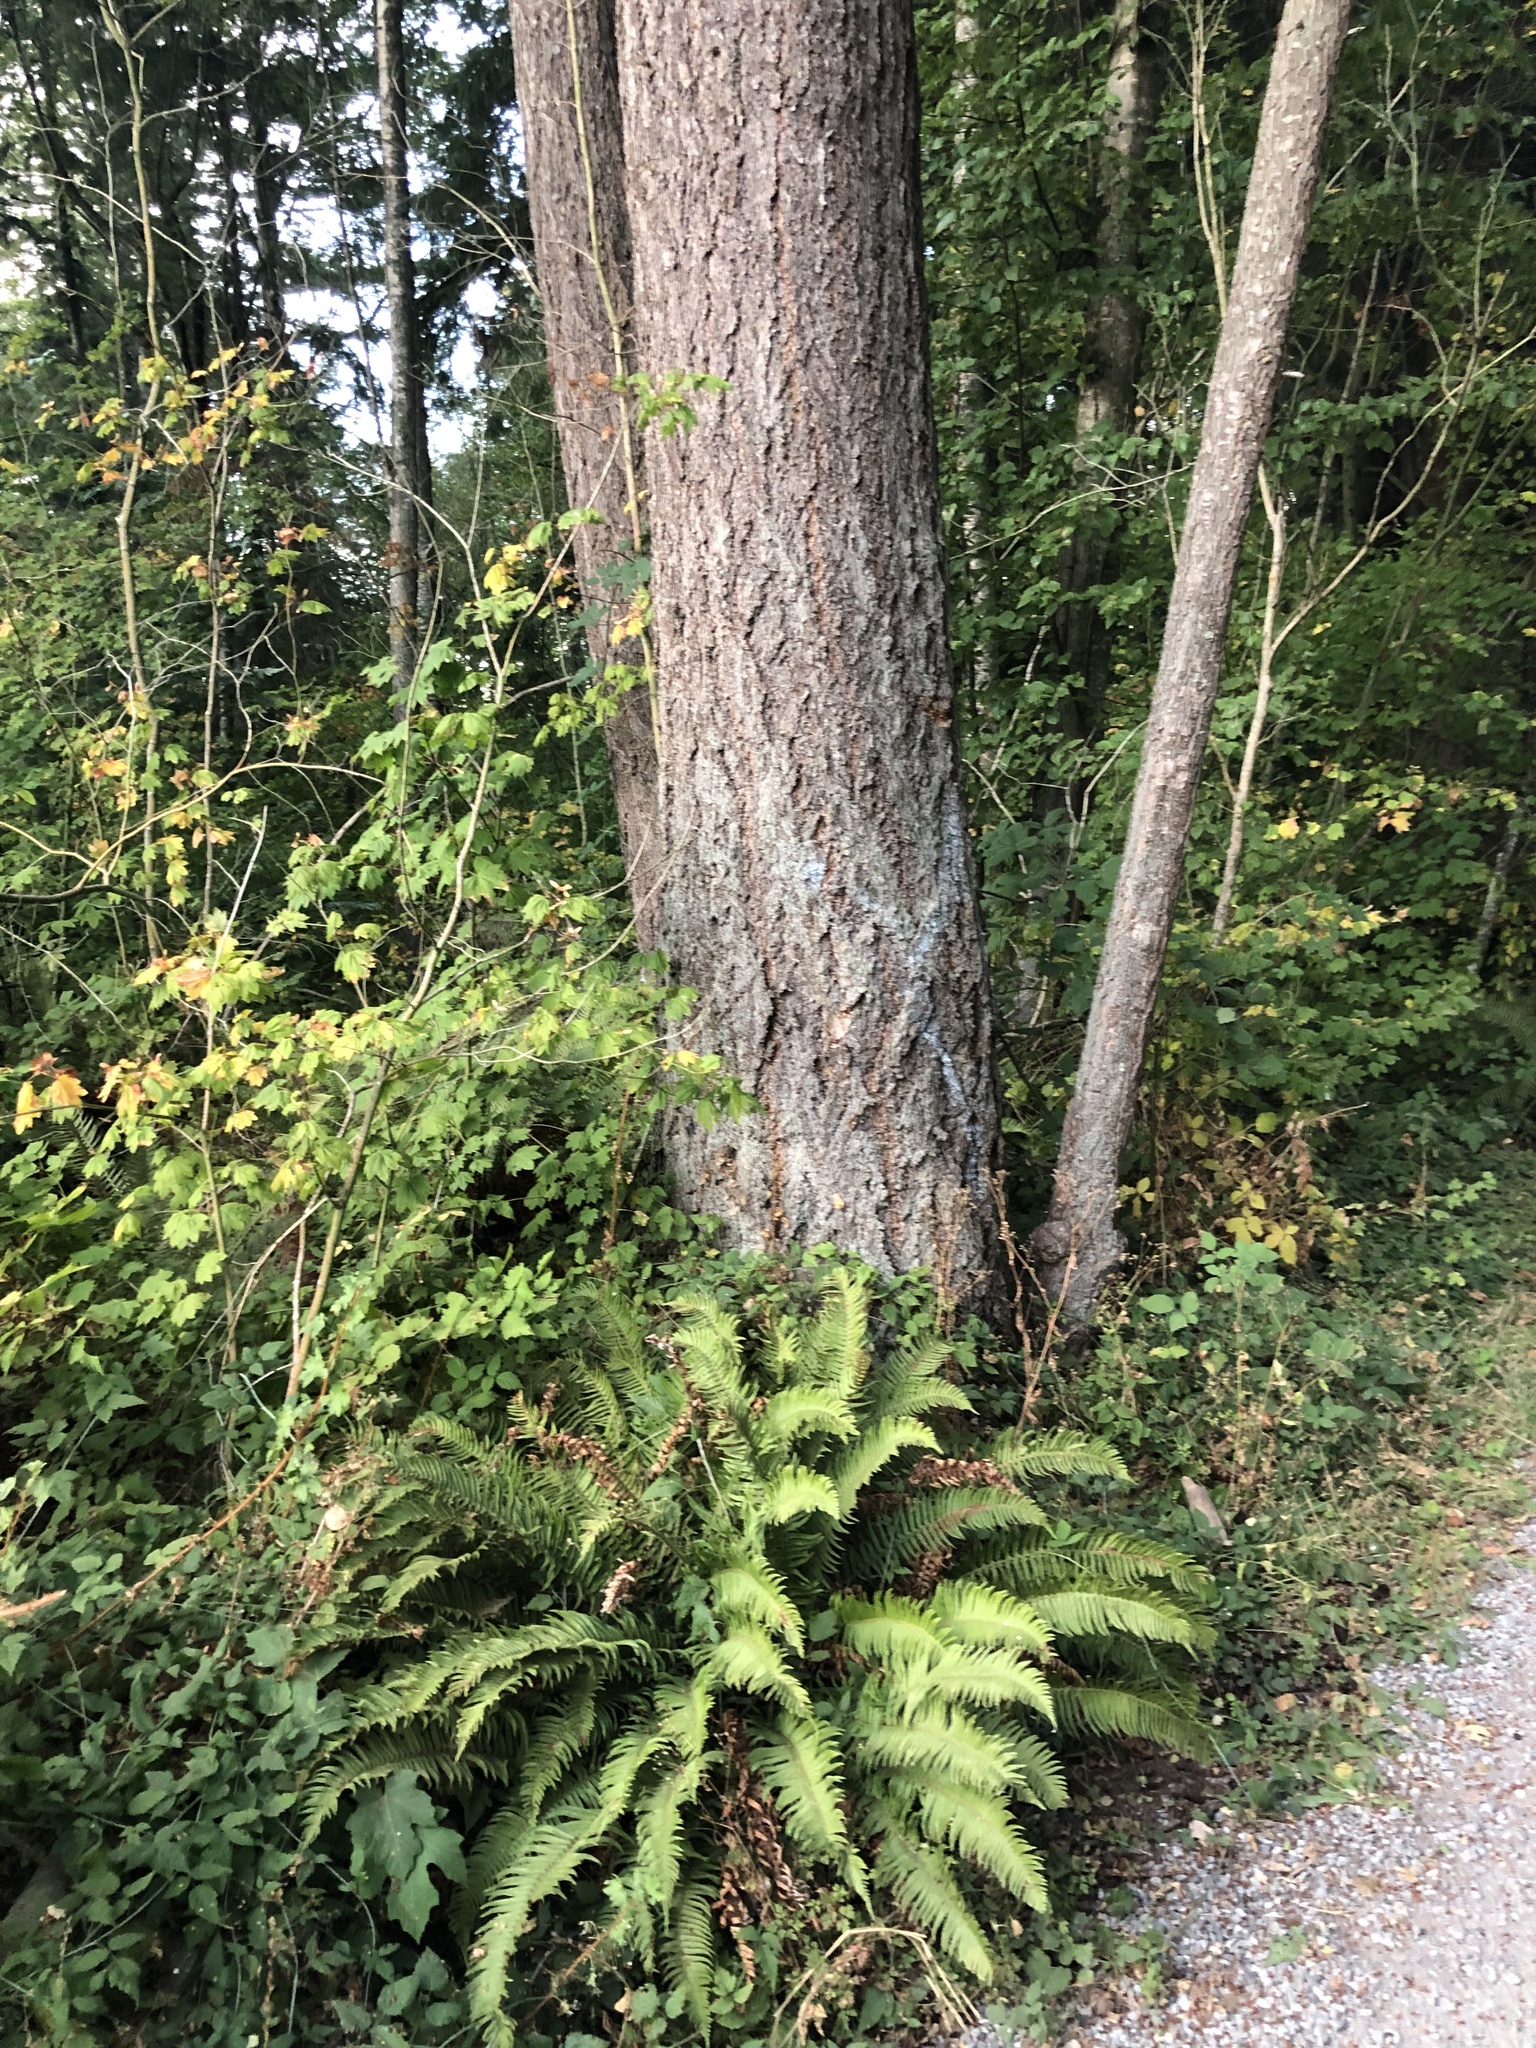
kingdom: Plantae
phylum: Tracheophyta
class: Pinopsida
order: Pinales
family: Pinaceae
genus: Pseudotsuga
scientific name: Pseudotsuga menziesii
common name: Douglas fir
